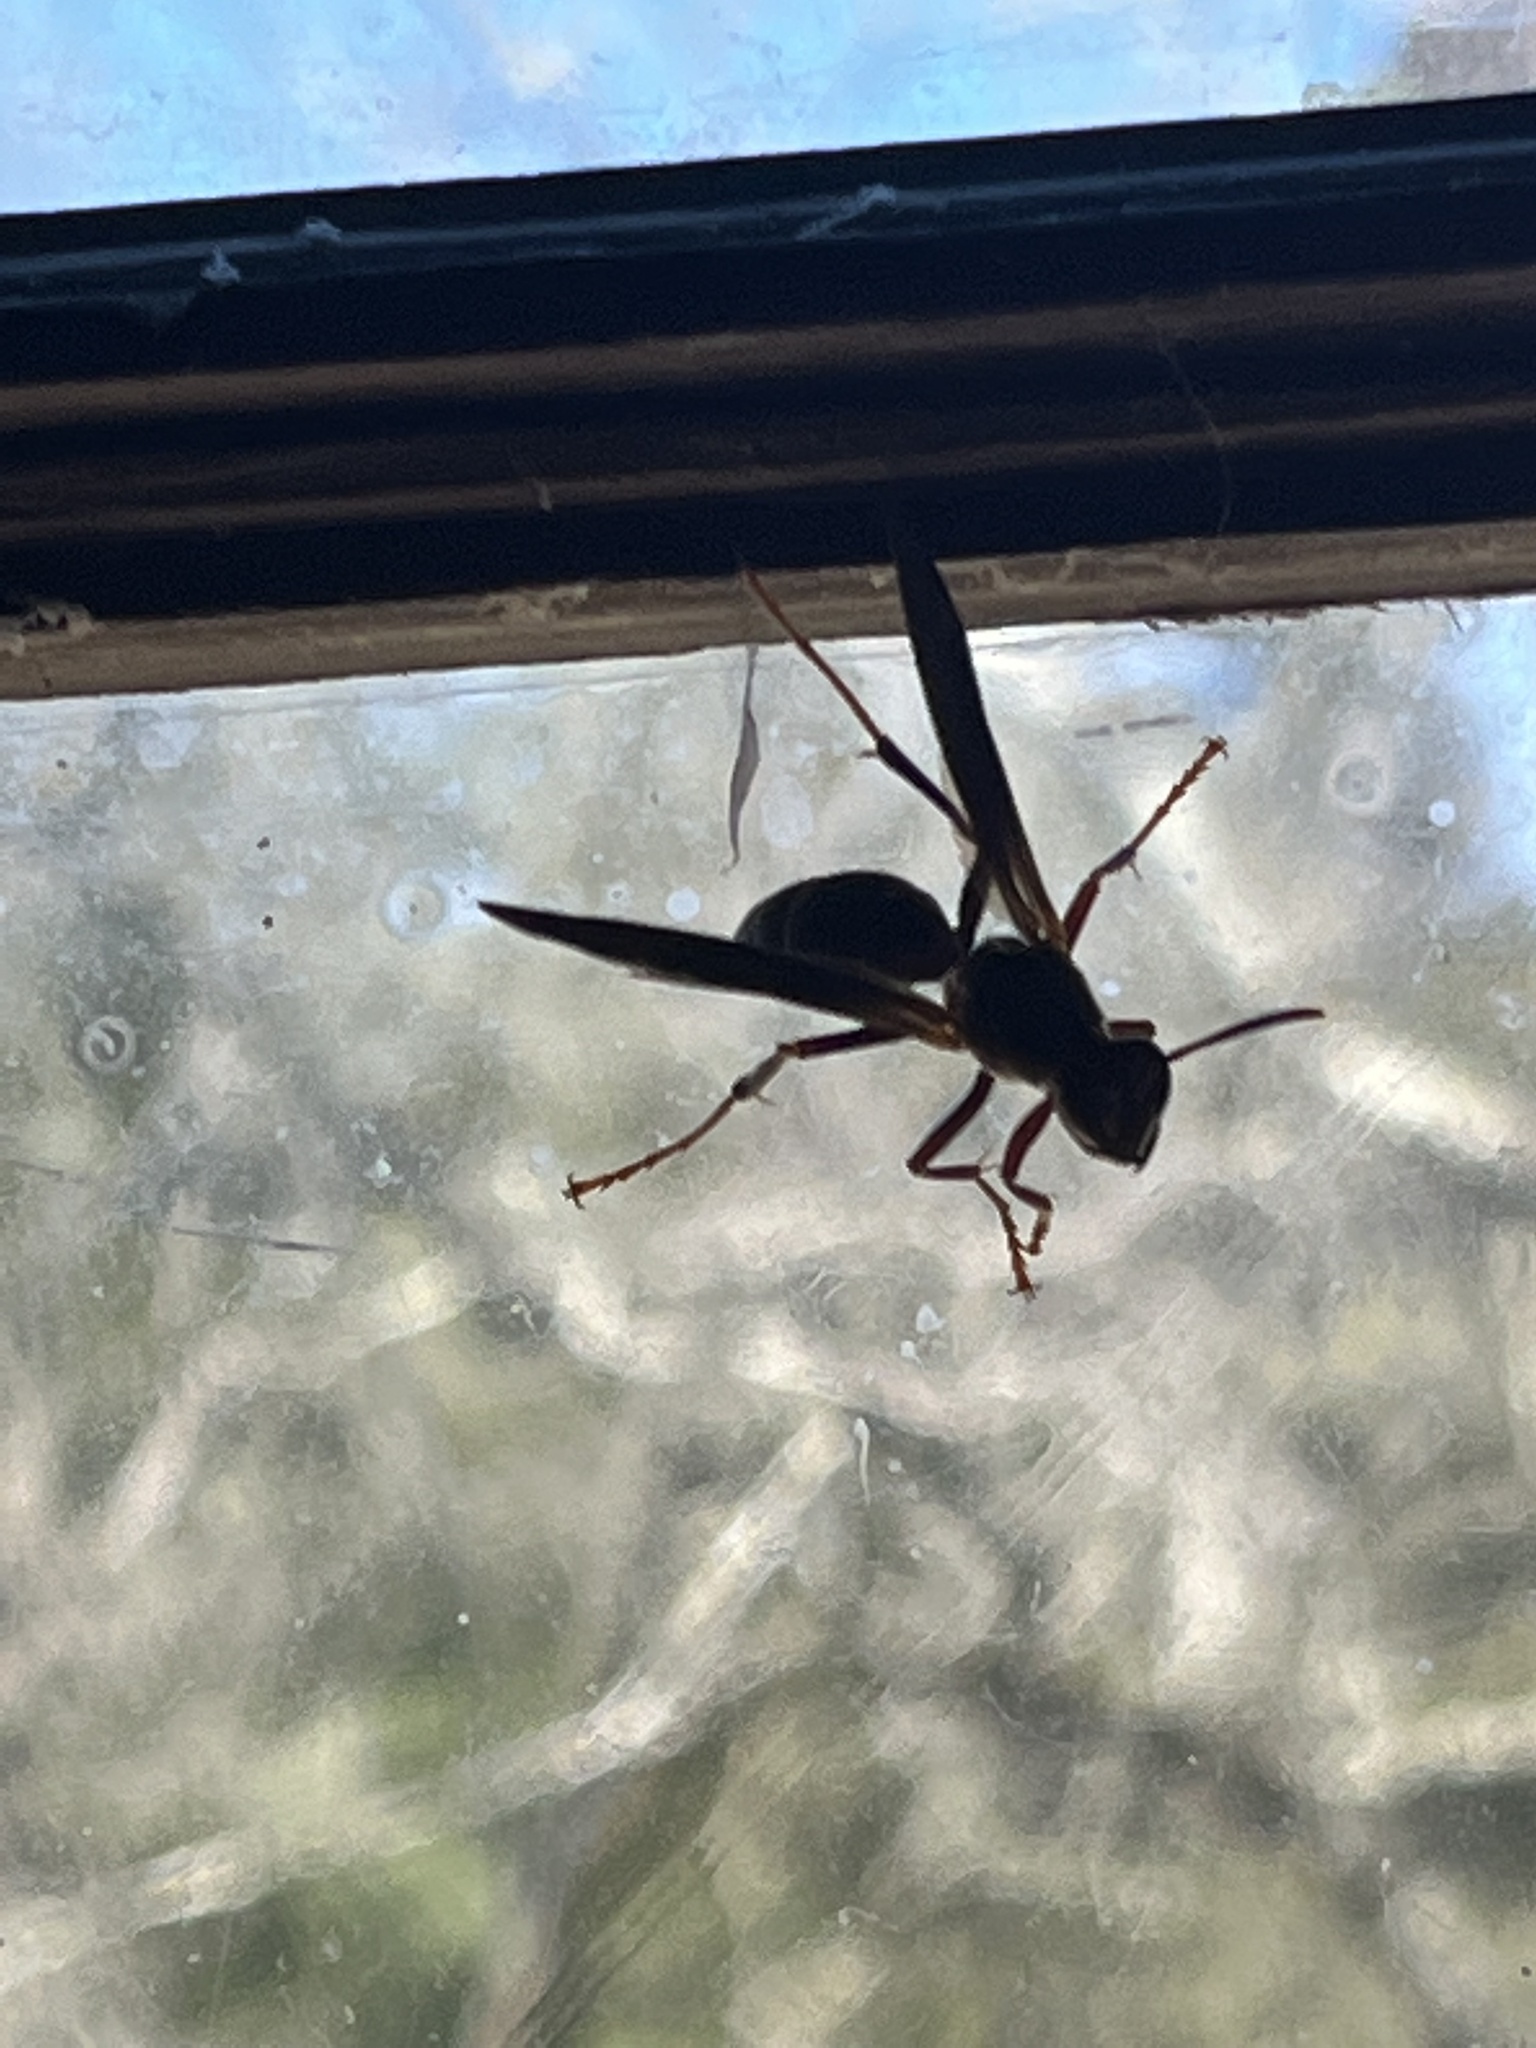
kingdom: Animalia
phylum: Arthropoda
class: Insecta
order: Hymenoptera
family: Eumenidae
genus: Polistes
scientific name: Polistes metricus
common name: Metric paper wasp
